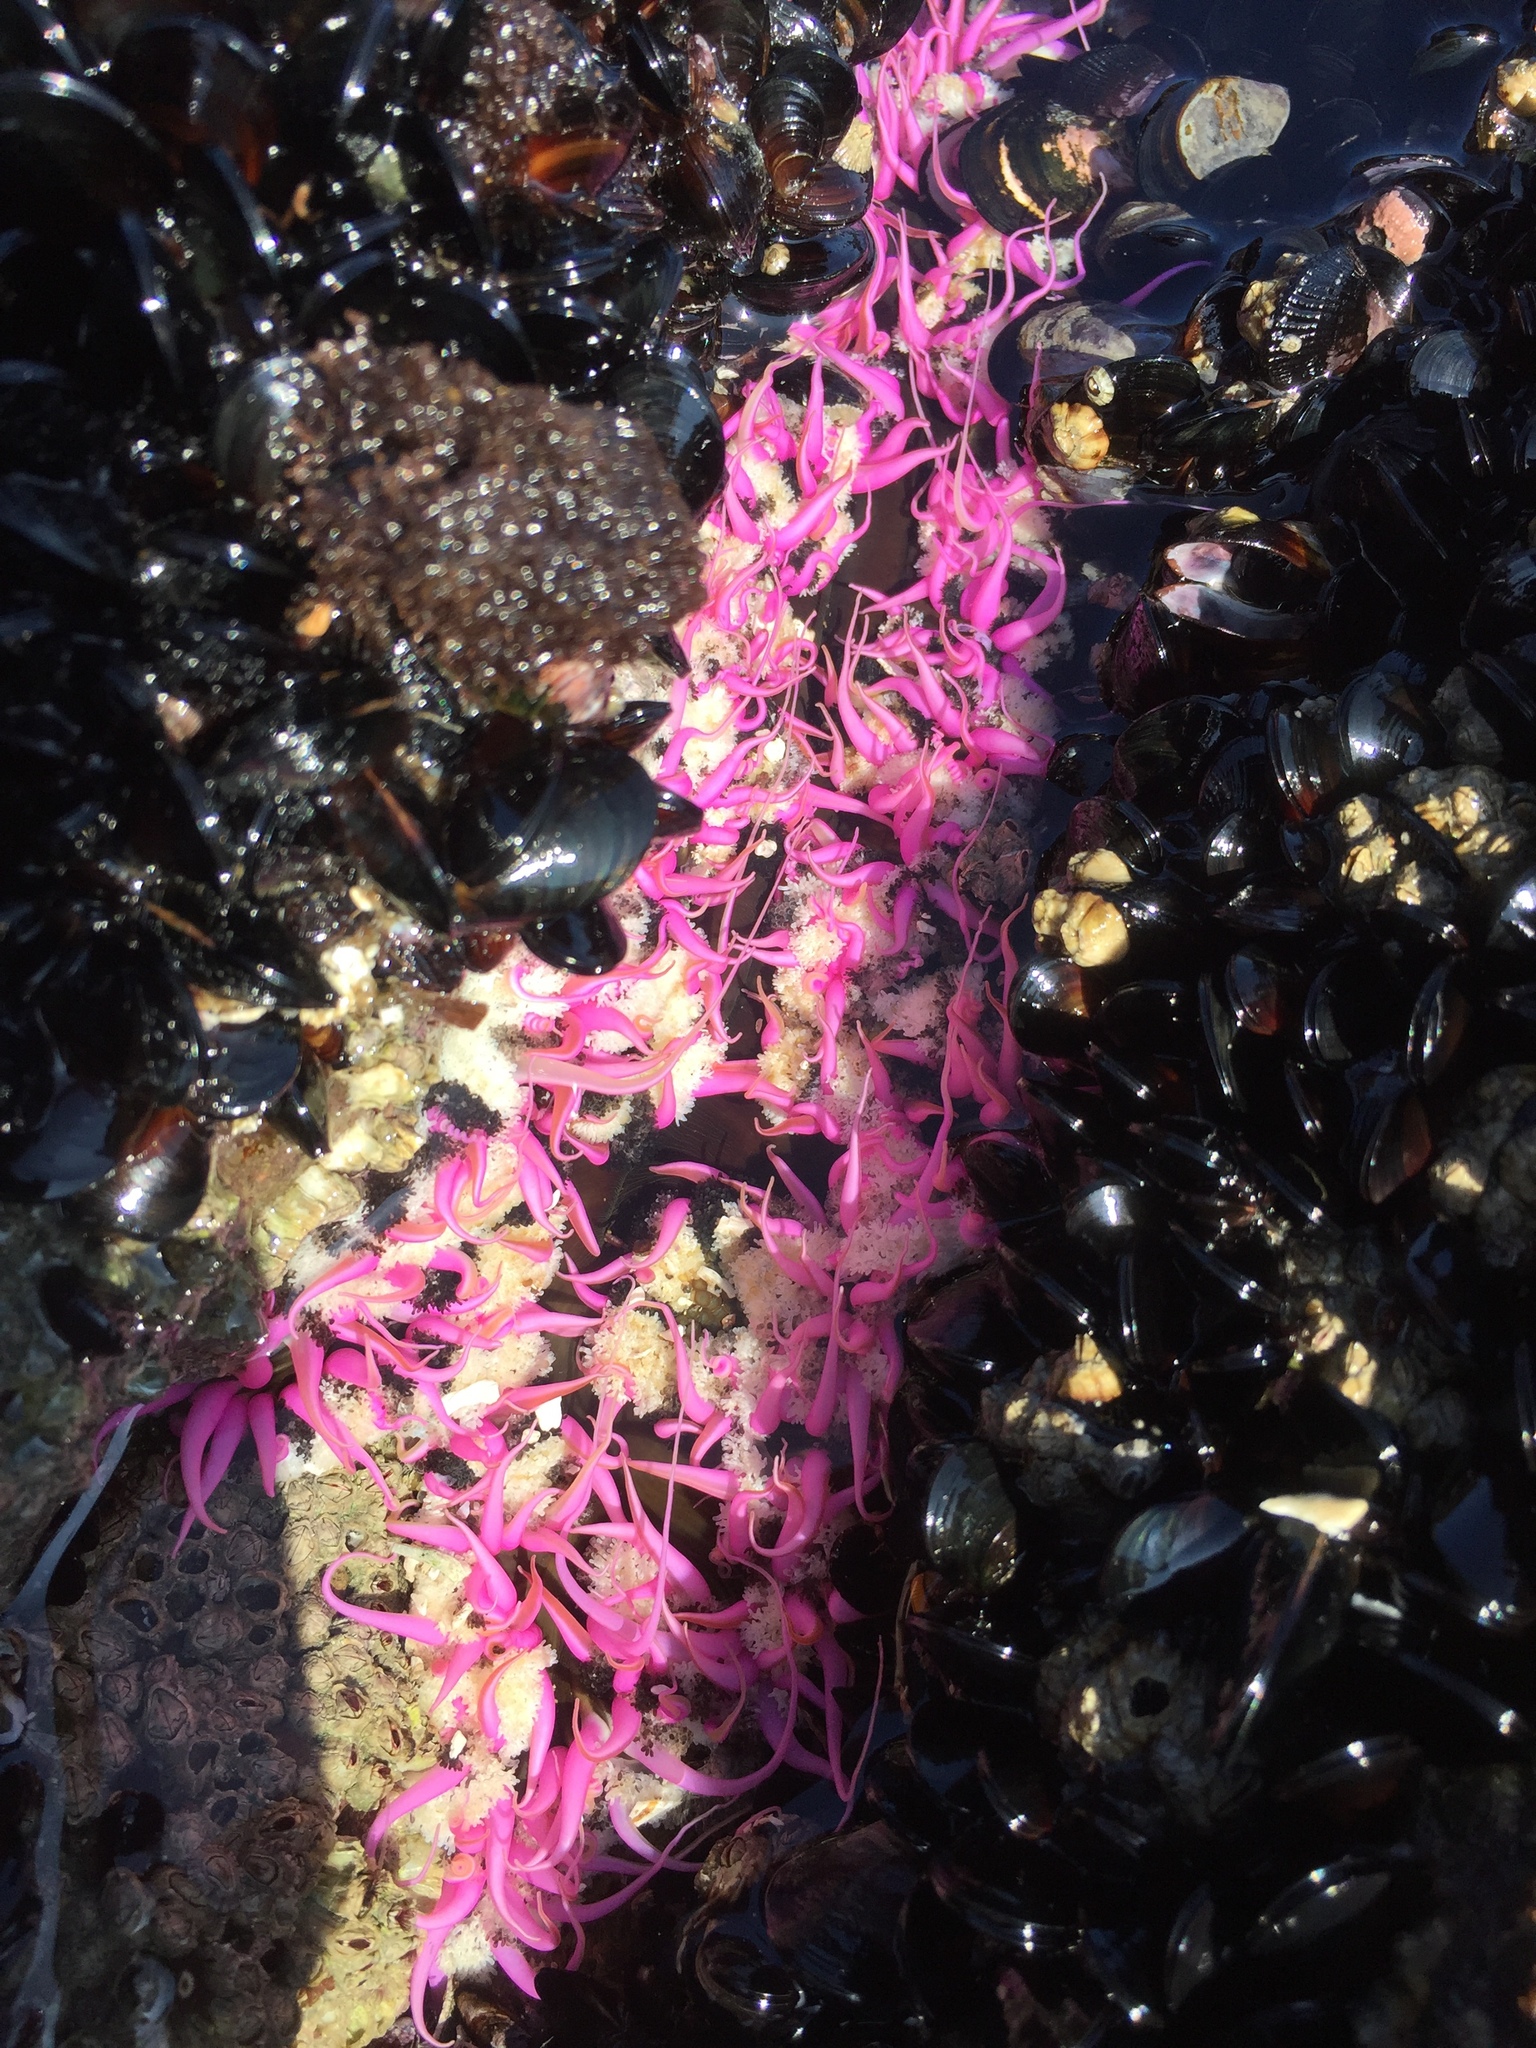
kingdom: Animalia
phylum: Cnidaria
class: Anthozoa
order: Actiniaria
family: Actiniidae
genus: Oulactis
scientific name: Oulactis concinnata
